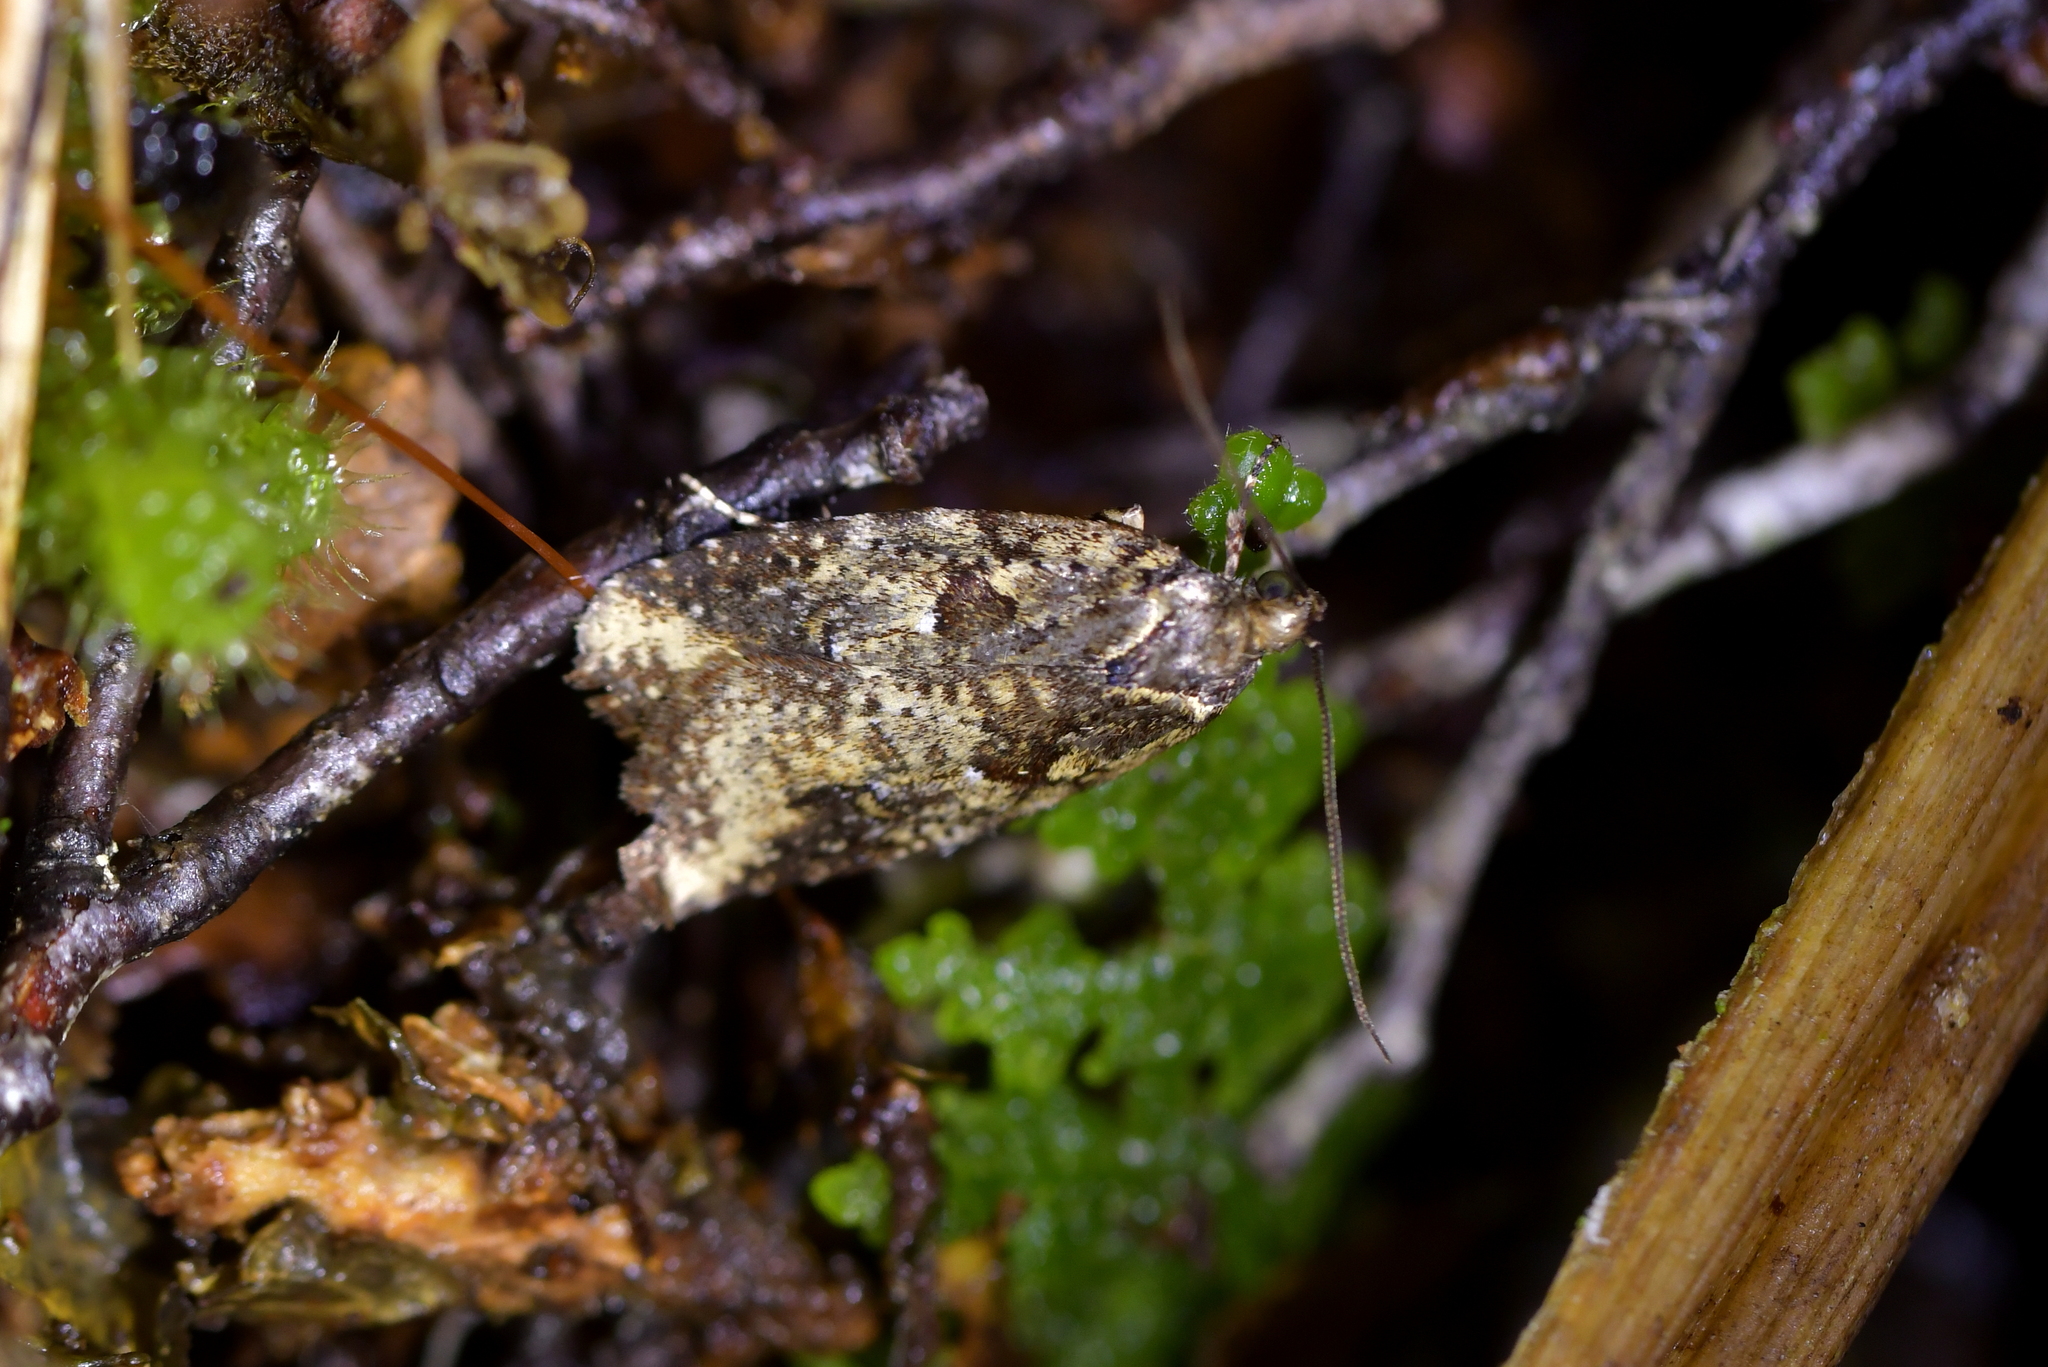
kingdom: Animalia
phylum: Arthropoda
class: Insecta
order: Lepidoptera
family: Oecophoridae
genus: Proteodes
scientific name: Proteodes profunda
